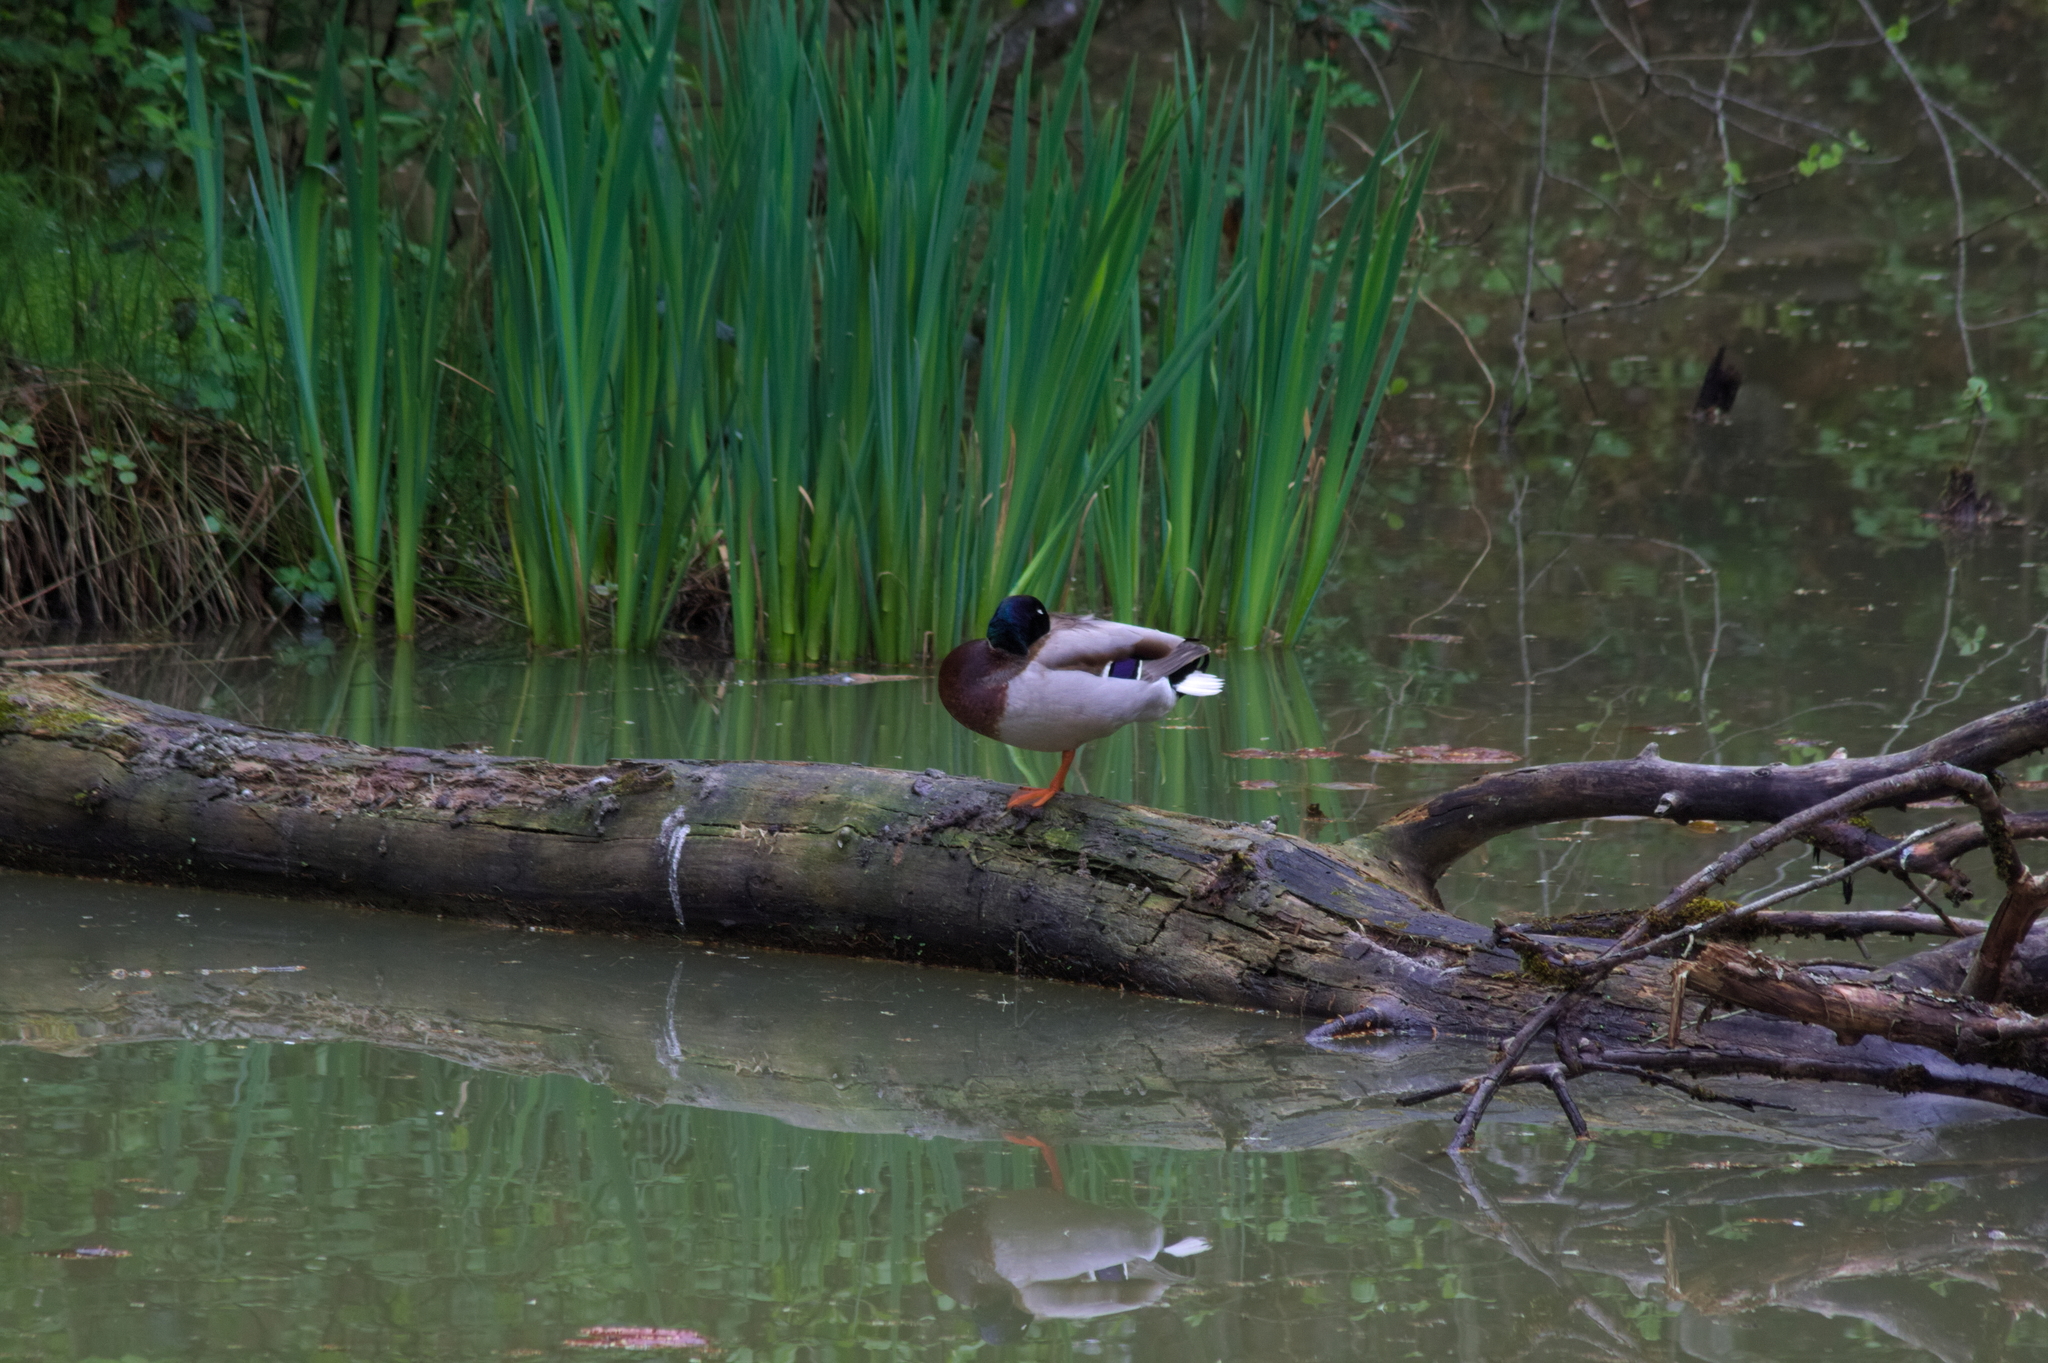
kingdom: Animalia
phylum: Chordata
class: Aves
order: Anseriformes
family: Anatidae
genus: Anas
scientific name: Anas platyrhynchos
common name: Mallard
